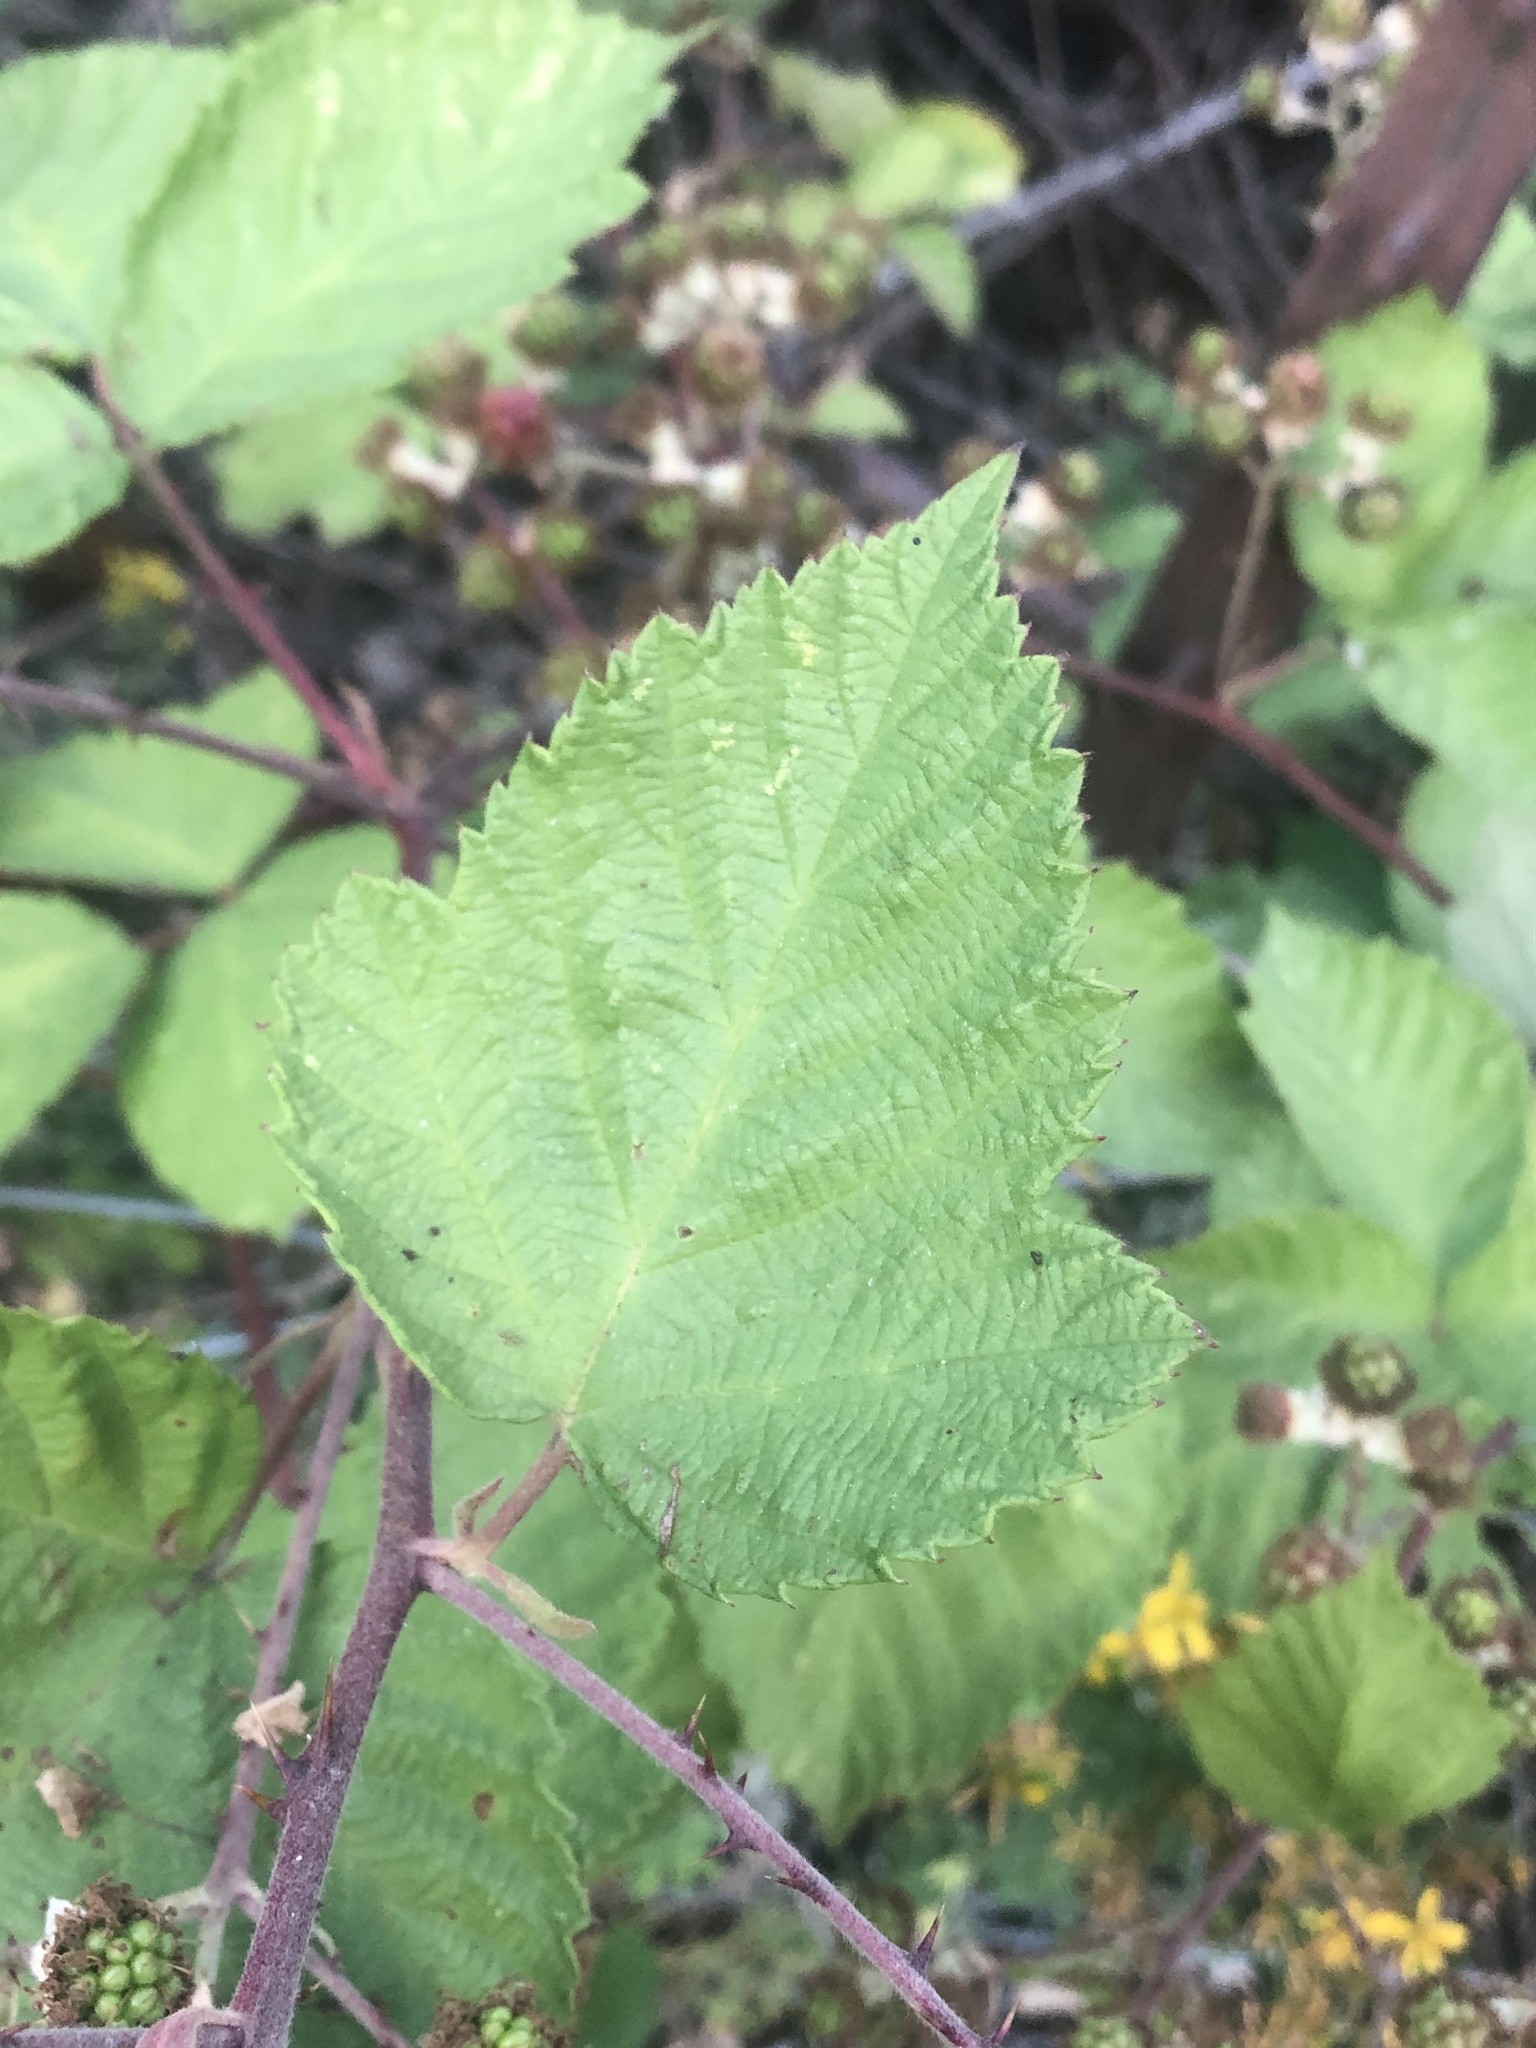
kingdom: Plantae
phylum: Tracheophyta
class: Magnoliopsida
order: Rosales
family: Rosaceae
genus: Rubus
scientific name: Rubus bifrons
